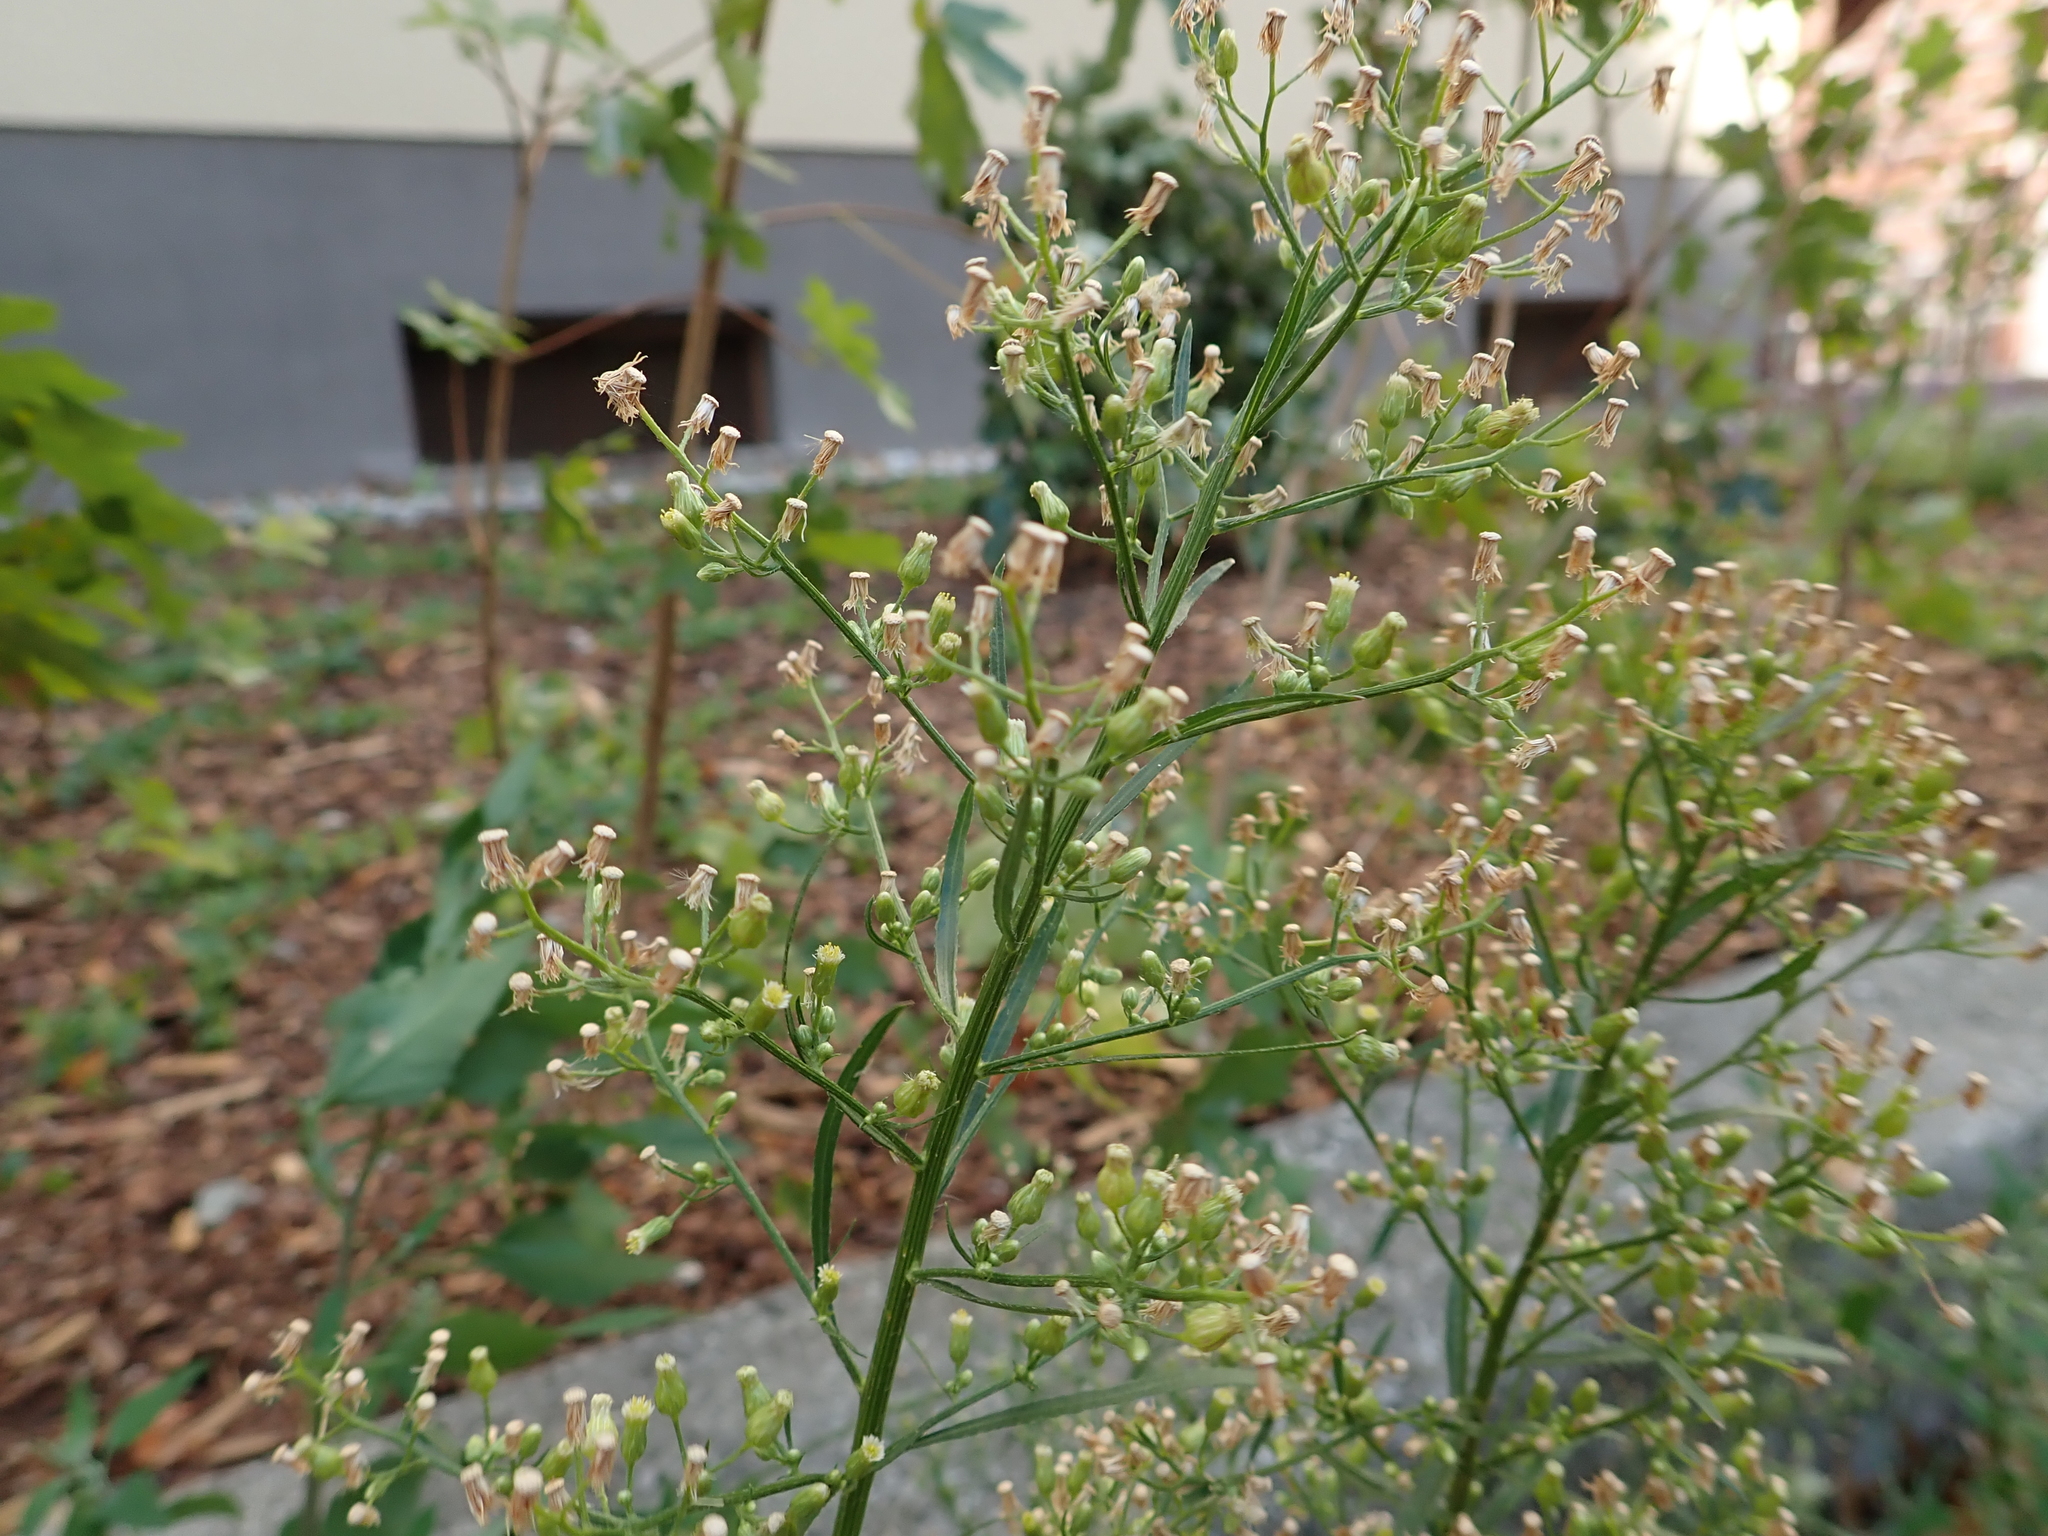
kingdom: Plantae
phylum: Tracheophyta
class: Magnoliopsida
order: Asterales
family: Asteraceae
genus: Erigeron
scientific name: Erigeron canadensis
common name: Canadian fleabane
